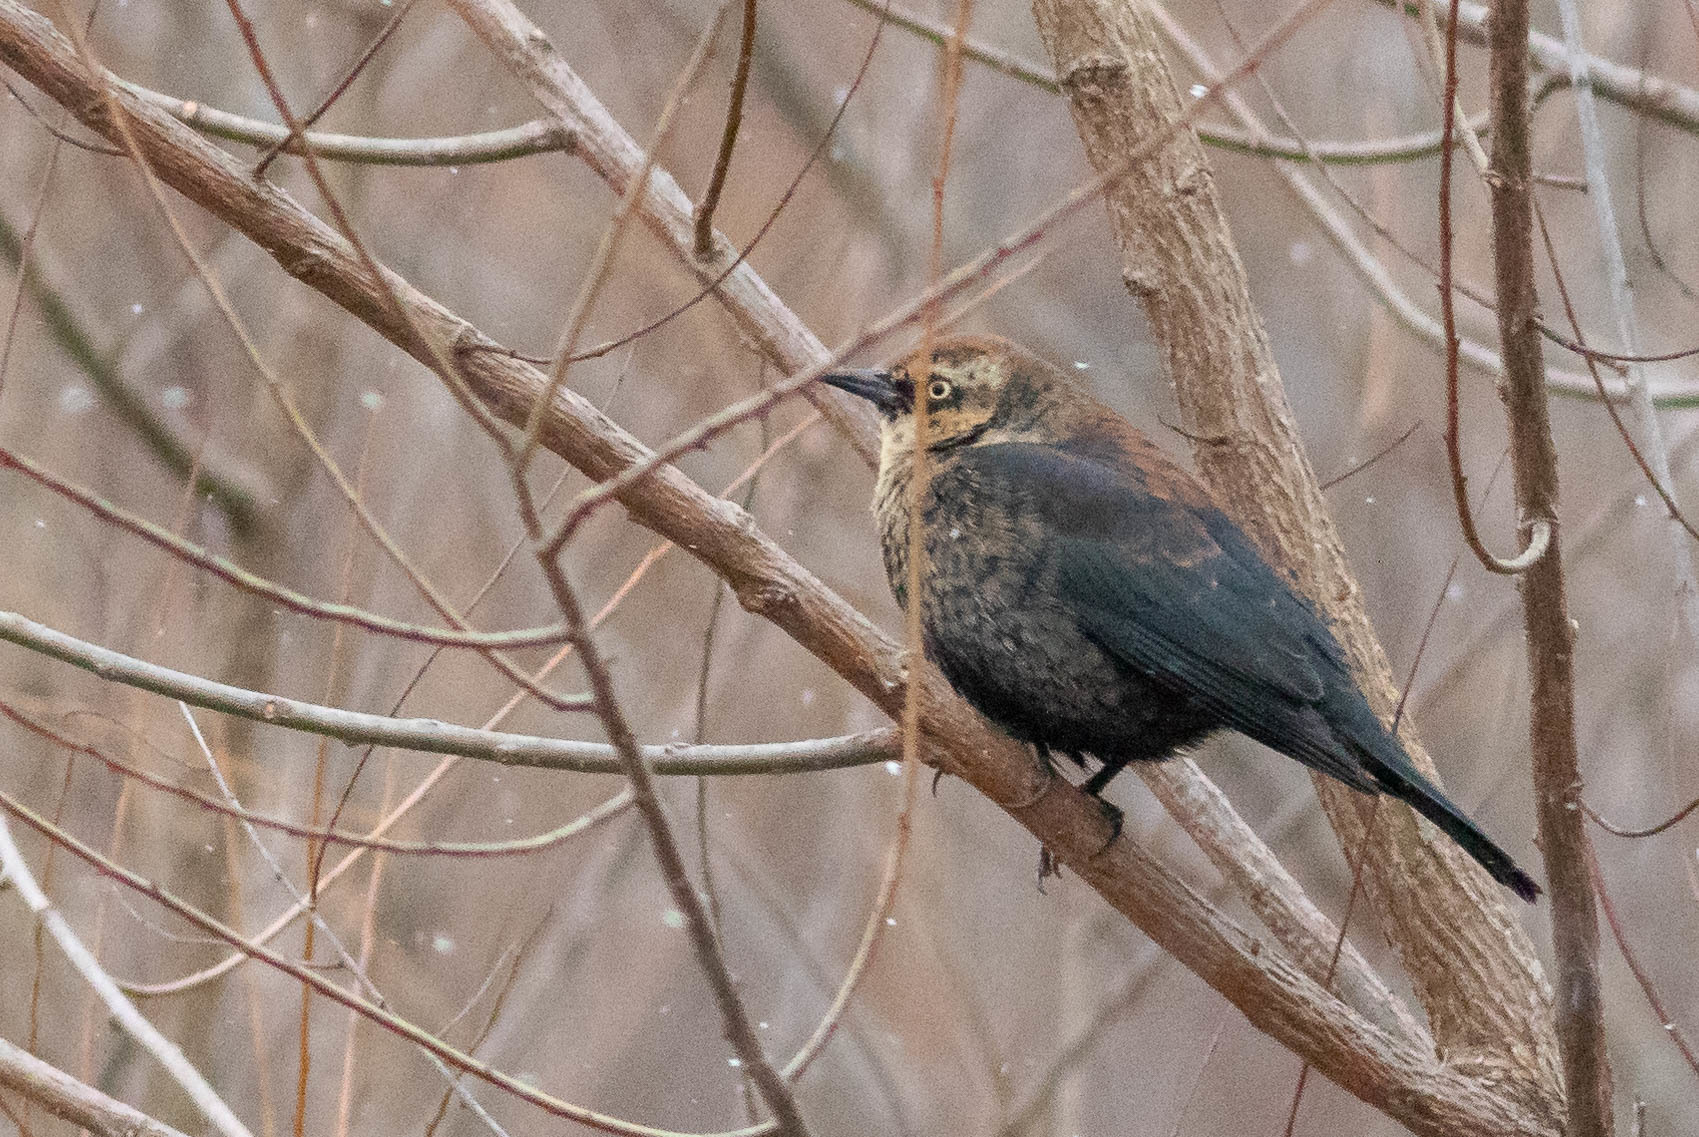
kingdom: Animalia
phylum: Chordata
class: Aves
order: Passeriformes
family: Icteridae
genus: Euphagus
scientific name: Euphagus carolinus
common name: Rusty blackbird
